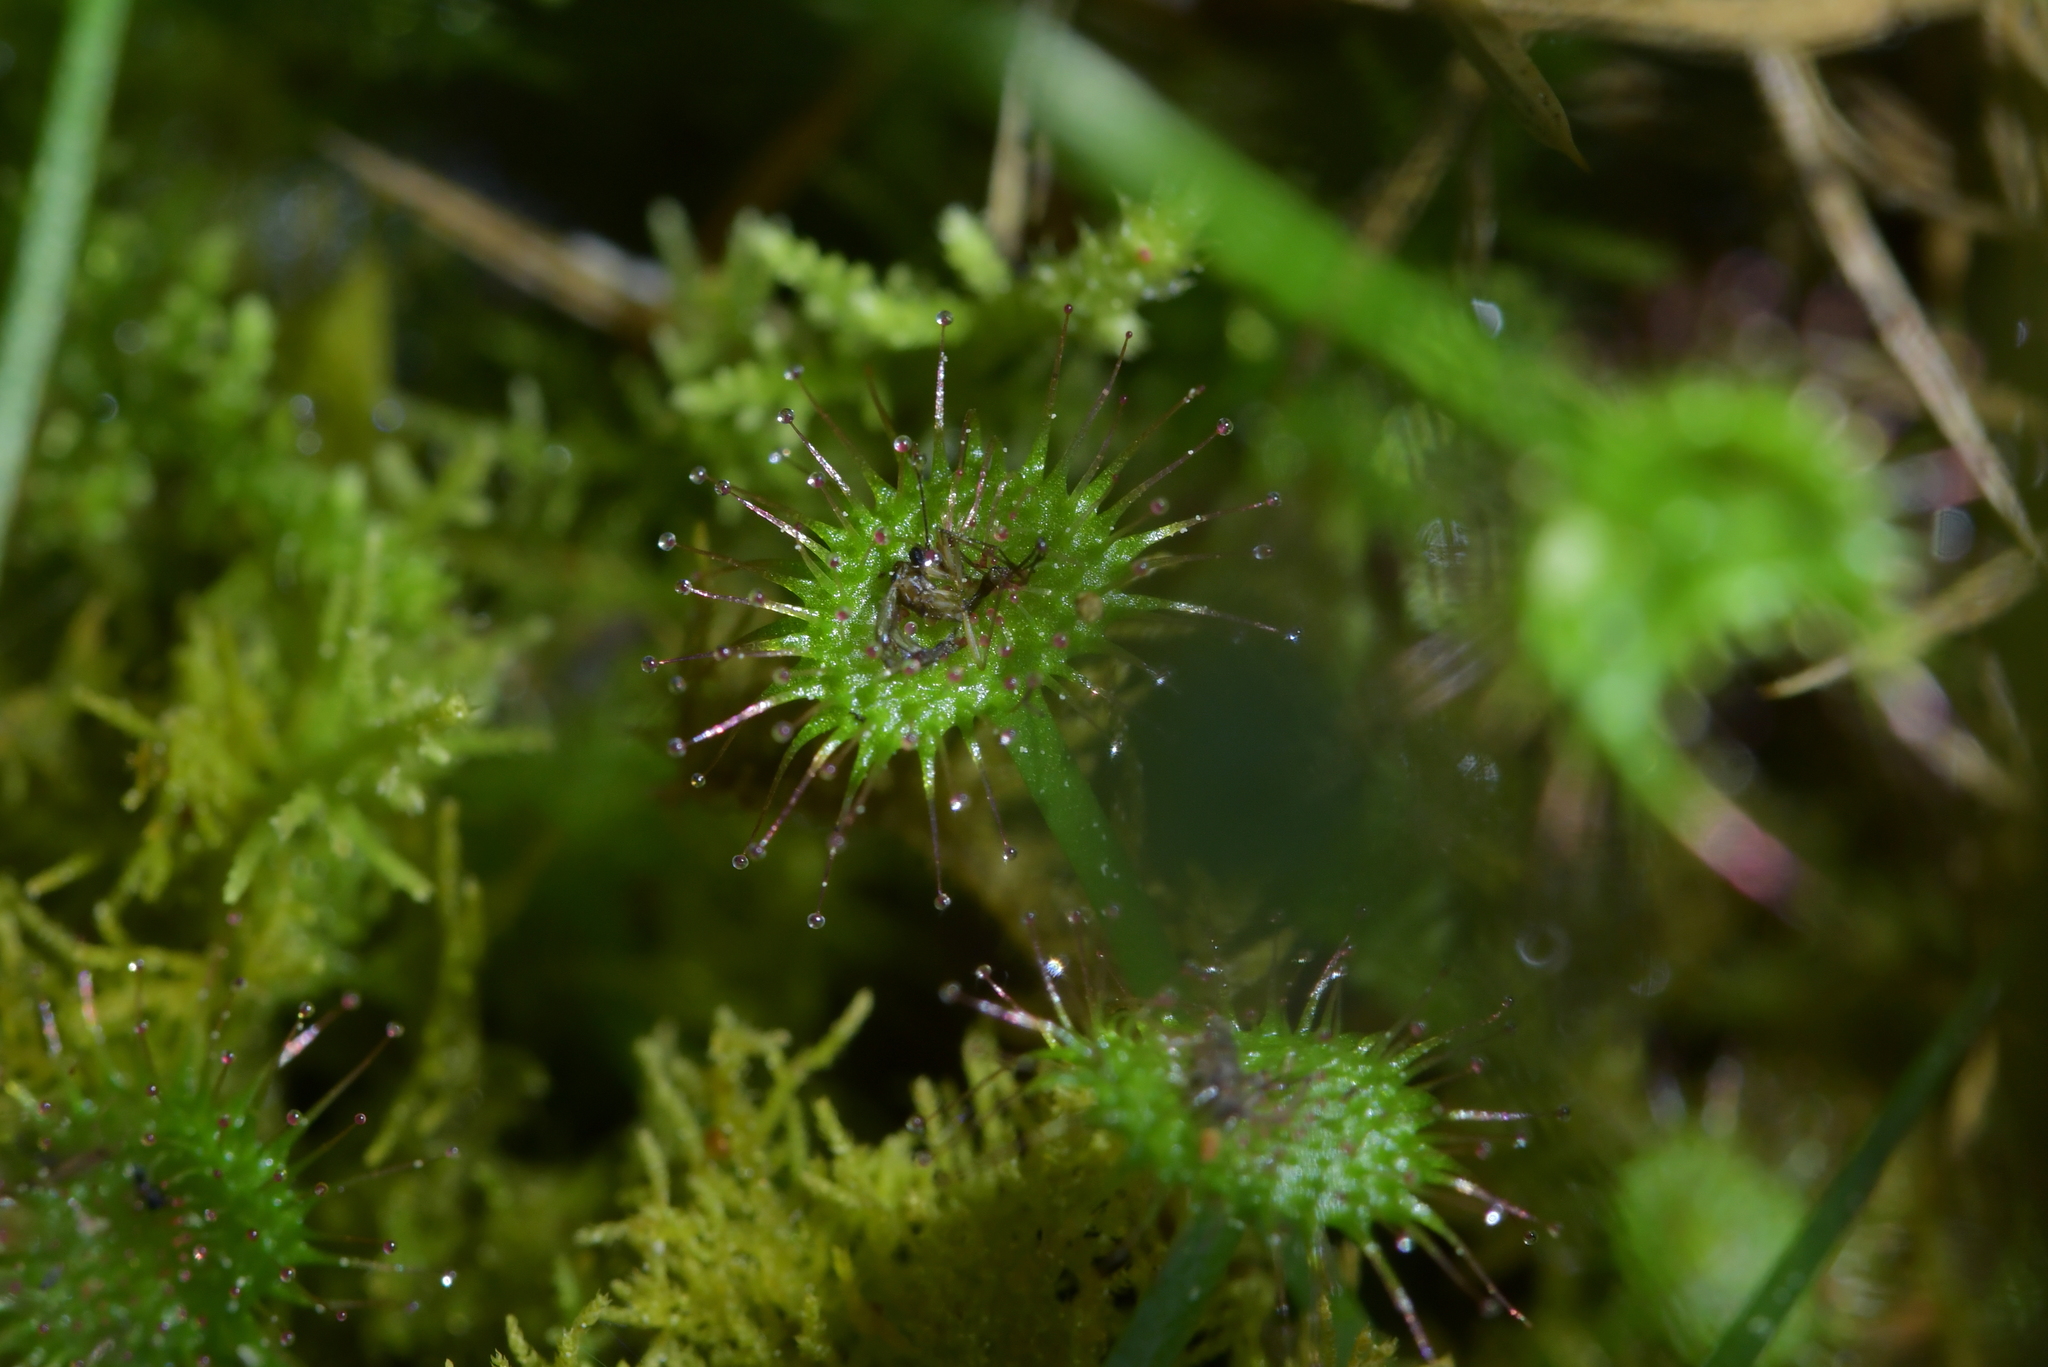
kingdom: Plantae
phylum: Tracheophyta
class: Magnoliopsida
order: Caryophyllales
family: Droseraceae
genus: Drosera
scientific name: Drosera peltata
